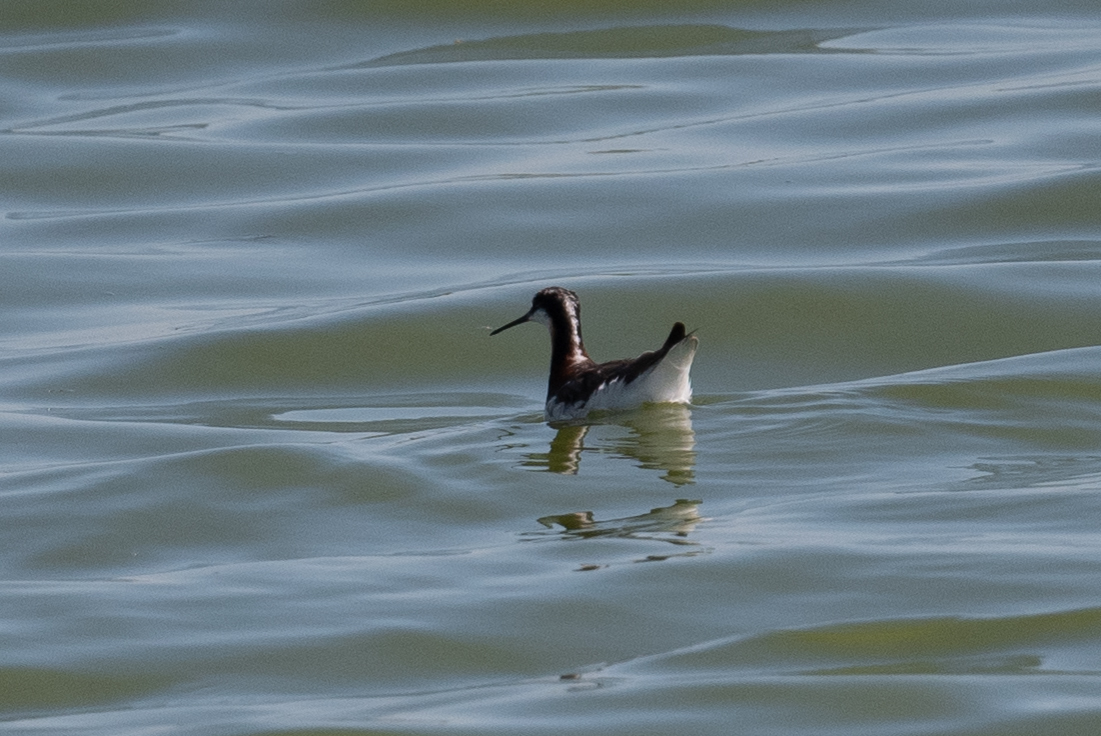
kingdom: Animalia
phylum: Chordata
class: Aves
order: Charadriiformes
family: Scolopacidae
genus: Phalaropus
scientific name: Phalaropus tricolor
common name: Wilson's phalarope
